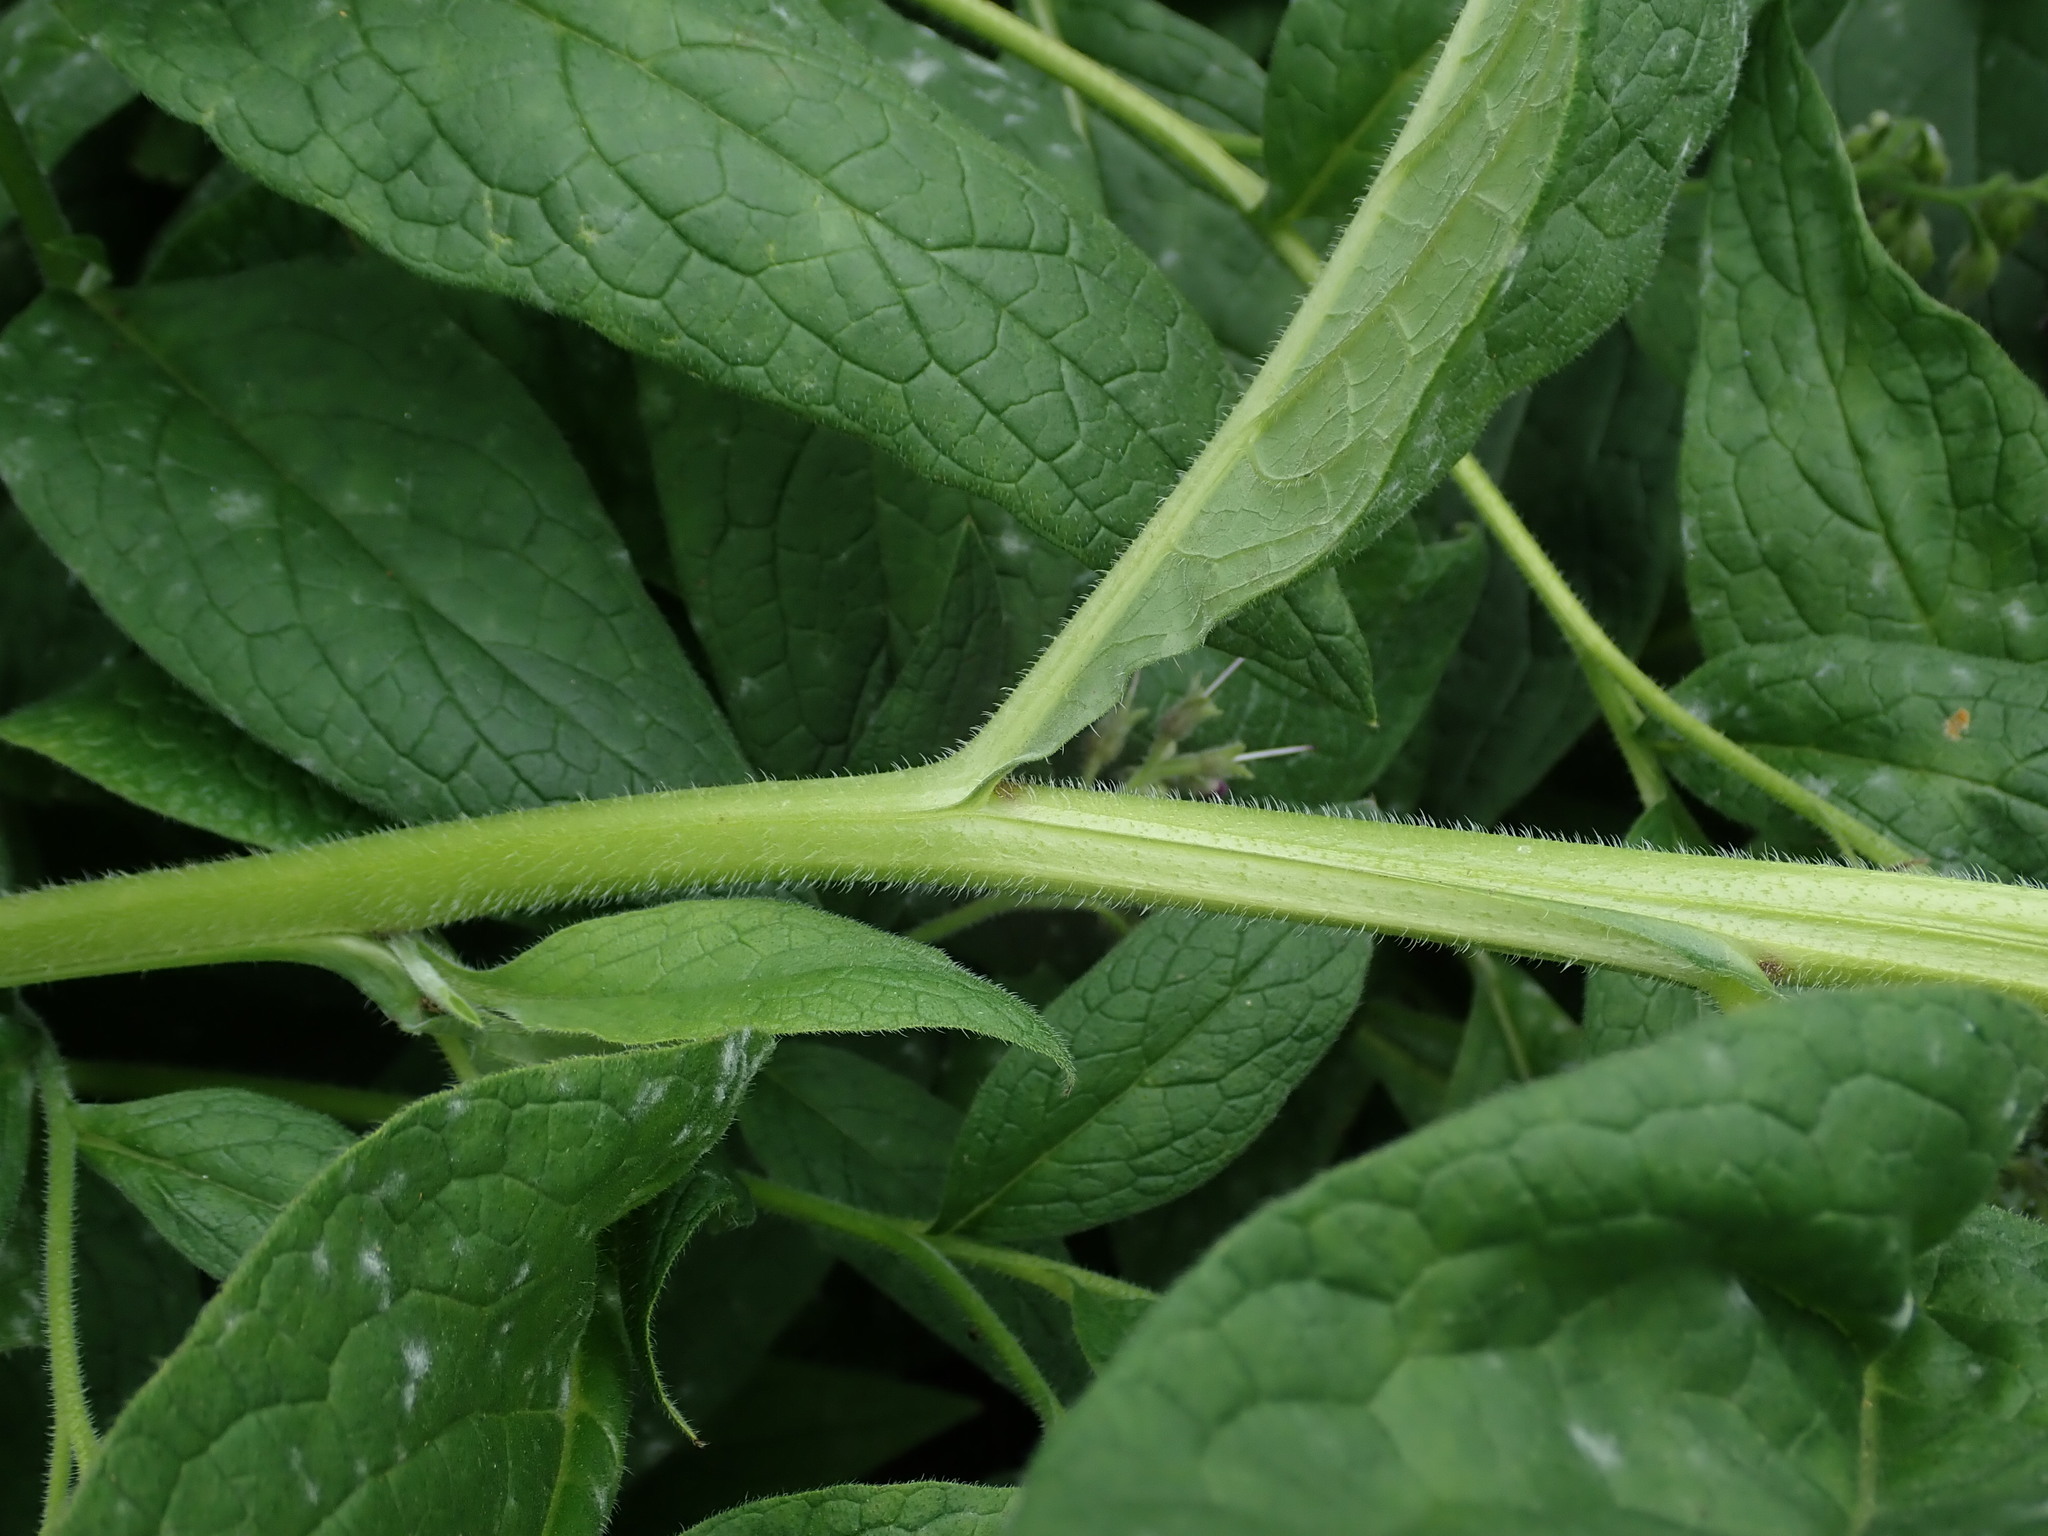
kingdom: Plantae
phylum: Tracheophyta
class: Magnoliopsida
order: Boraginales
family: Boraginaceae
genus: Symphytum
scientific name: Symphytum uplandicum
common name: Russian comfrey
